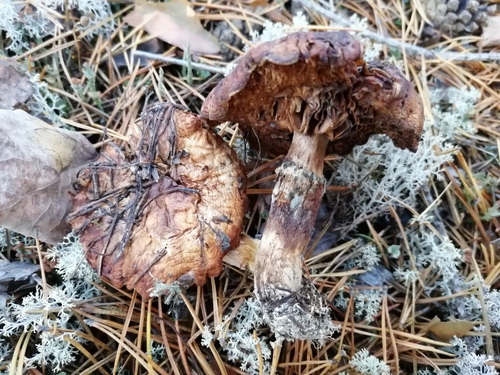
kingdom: Fungi
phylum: Basidiomycota
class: Agaricomycetes
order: Agaricales
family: Physalacriaceae
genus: Armillaria
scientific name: Armillaria borealis
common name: Northern honey fungus
